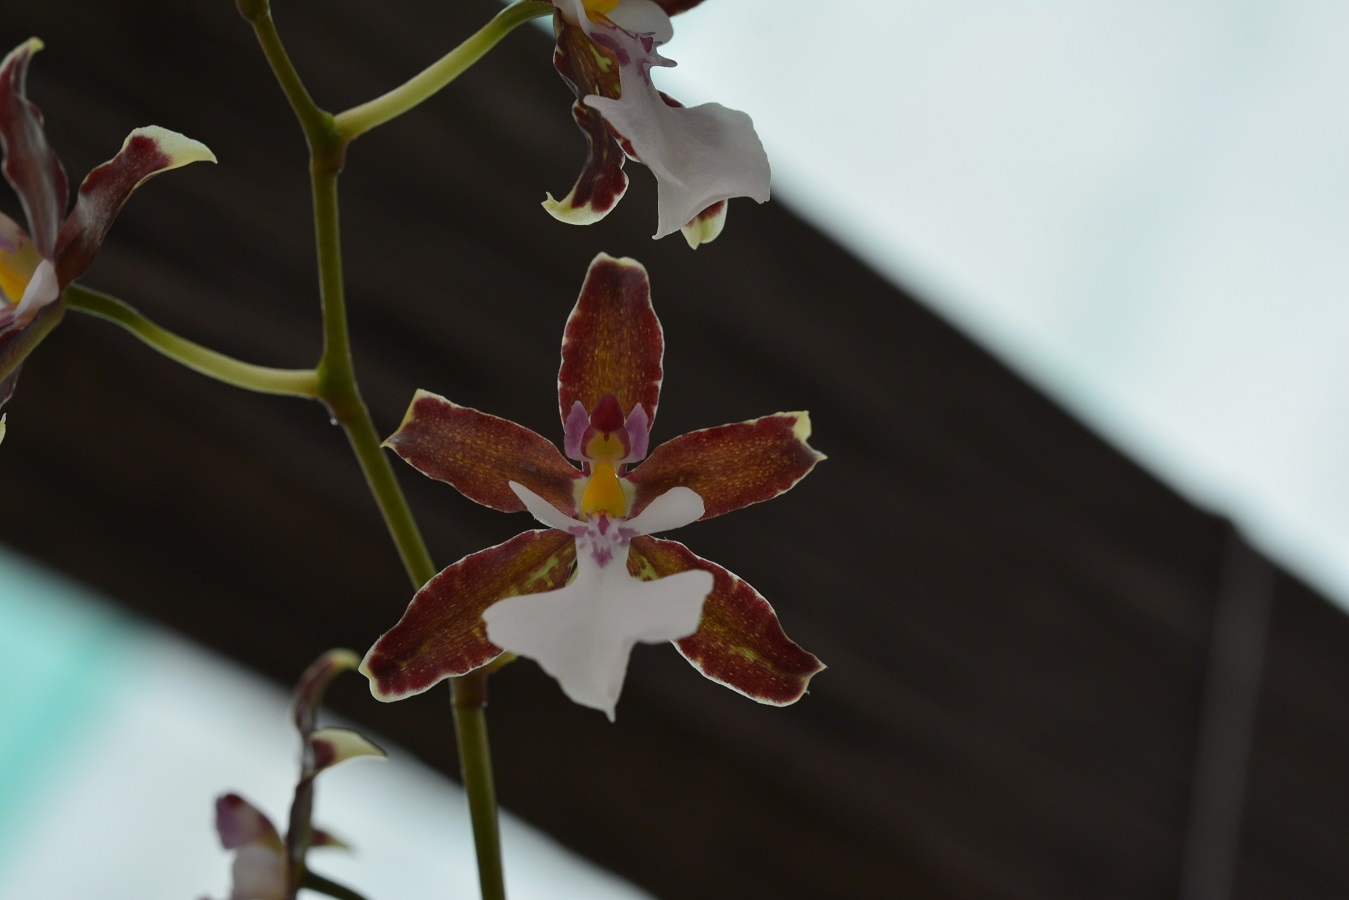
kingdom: Plantae
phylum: Tracheophyta
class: Liliopsida
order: Asparagales
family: Orchidaceae
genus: Oncidium
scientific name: Oncidium leucochilum
